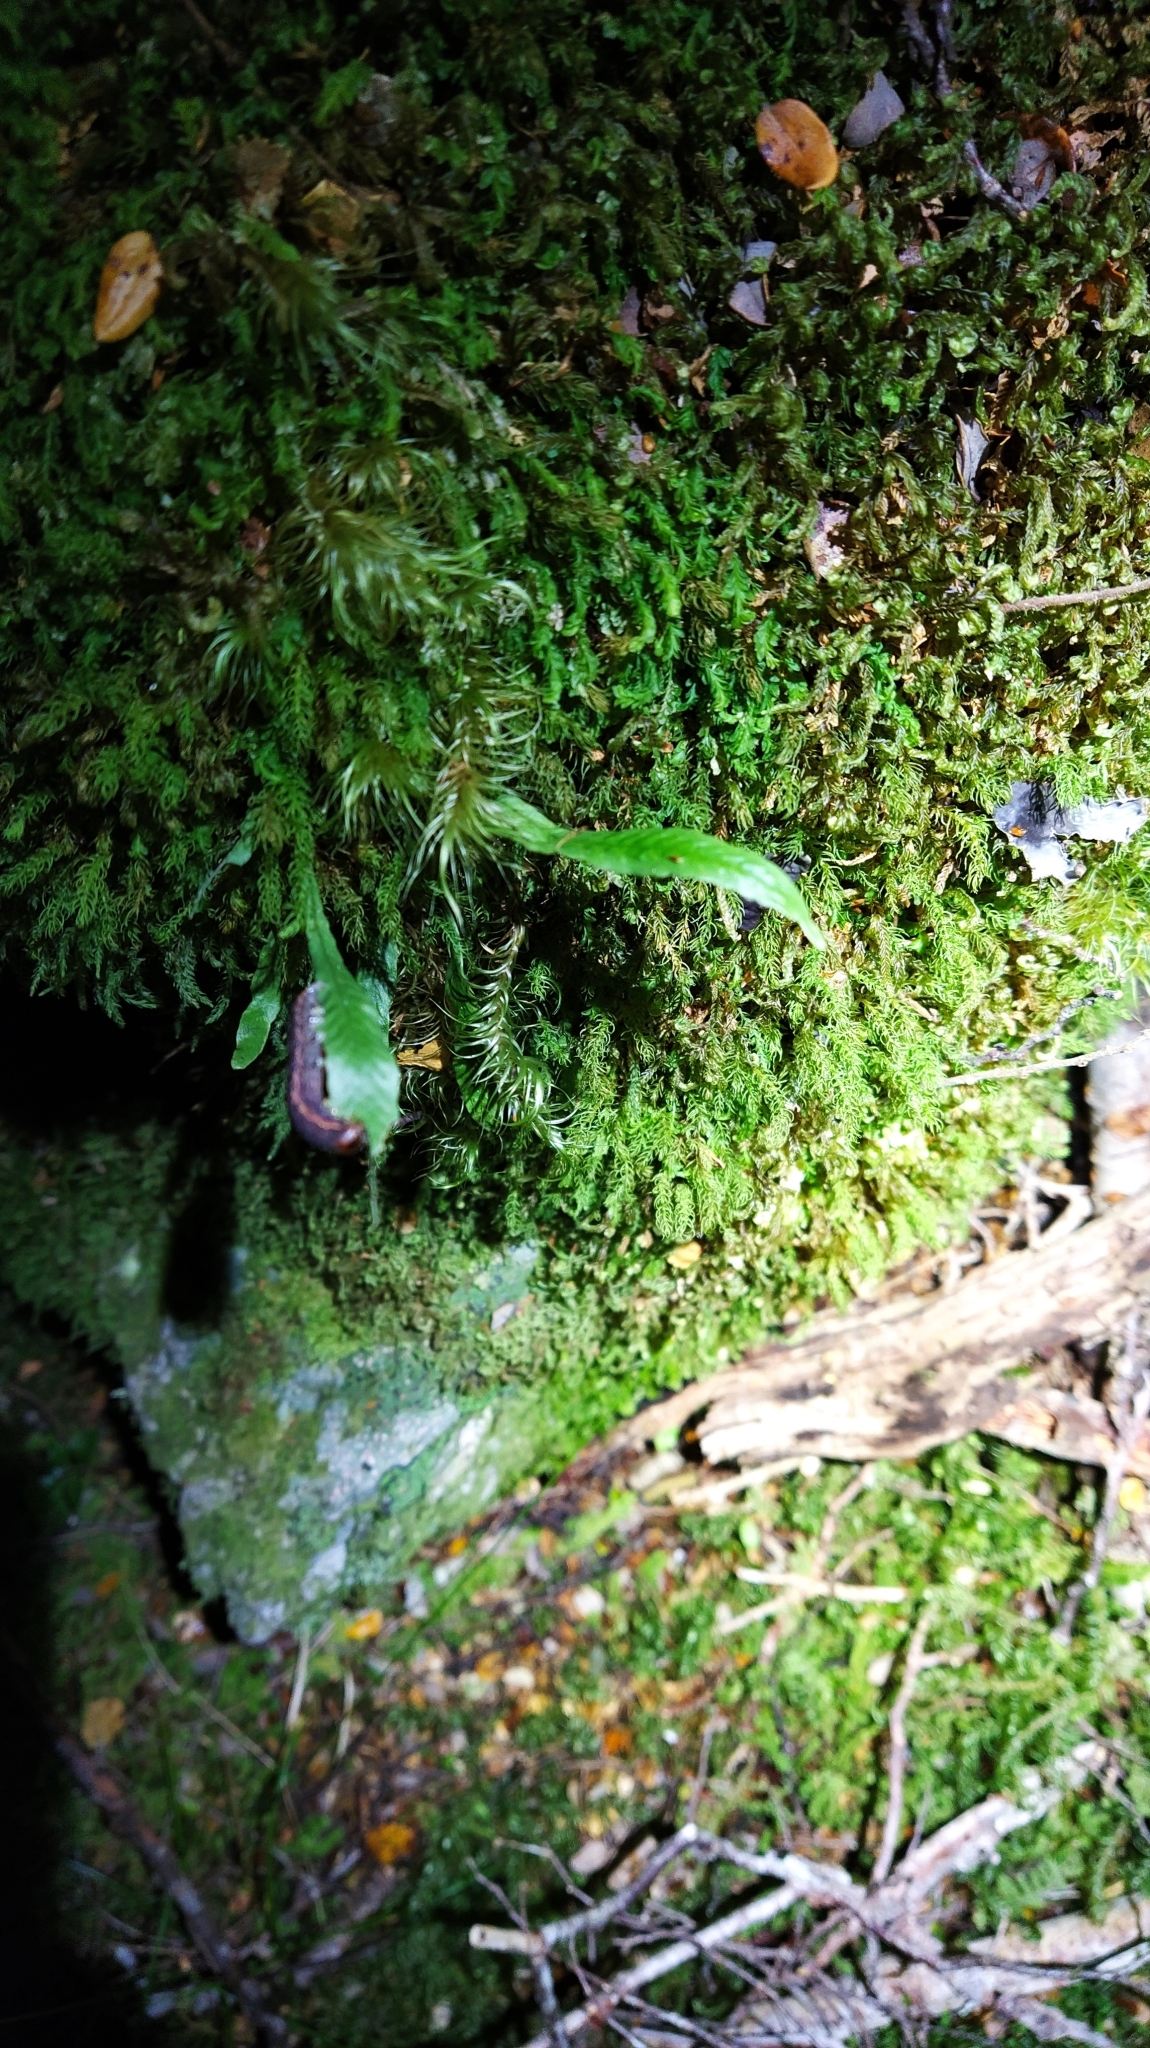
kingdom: Plantae
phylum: Tracheophyta
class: Polypodiopsida
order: Polypodiales
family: Polypodiaceae
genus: Notogrammitis
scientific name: Notogrammitis billardierei
